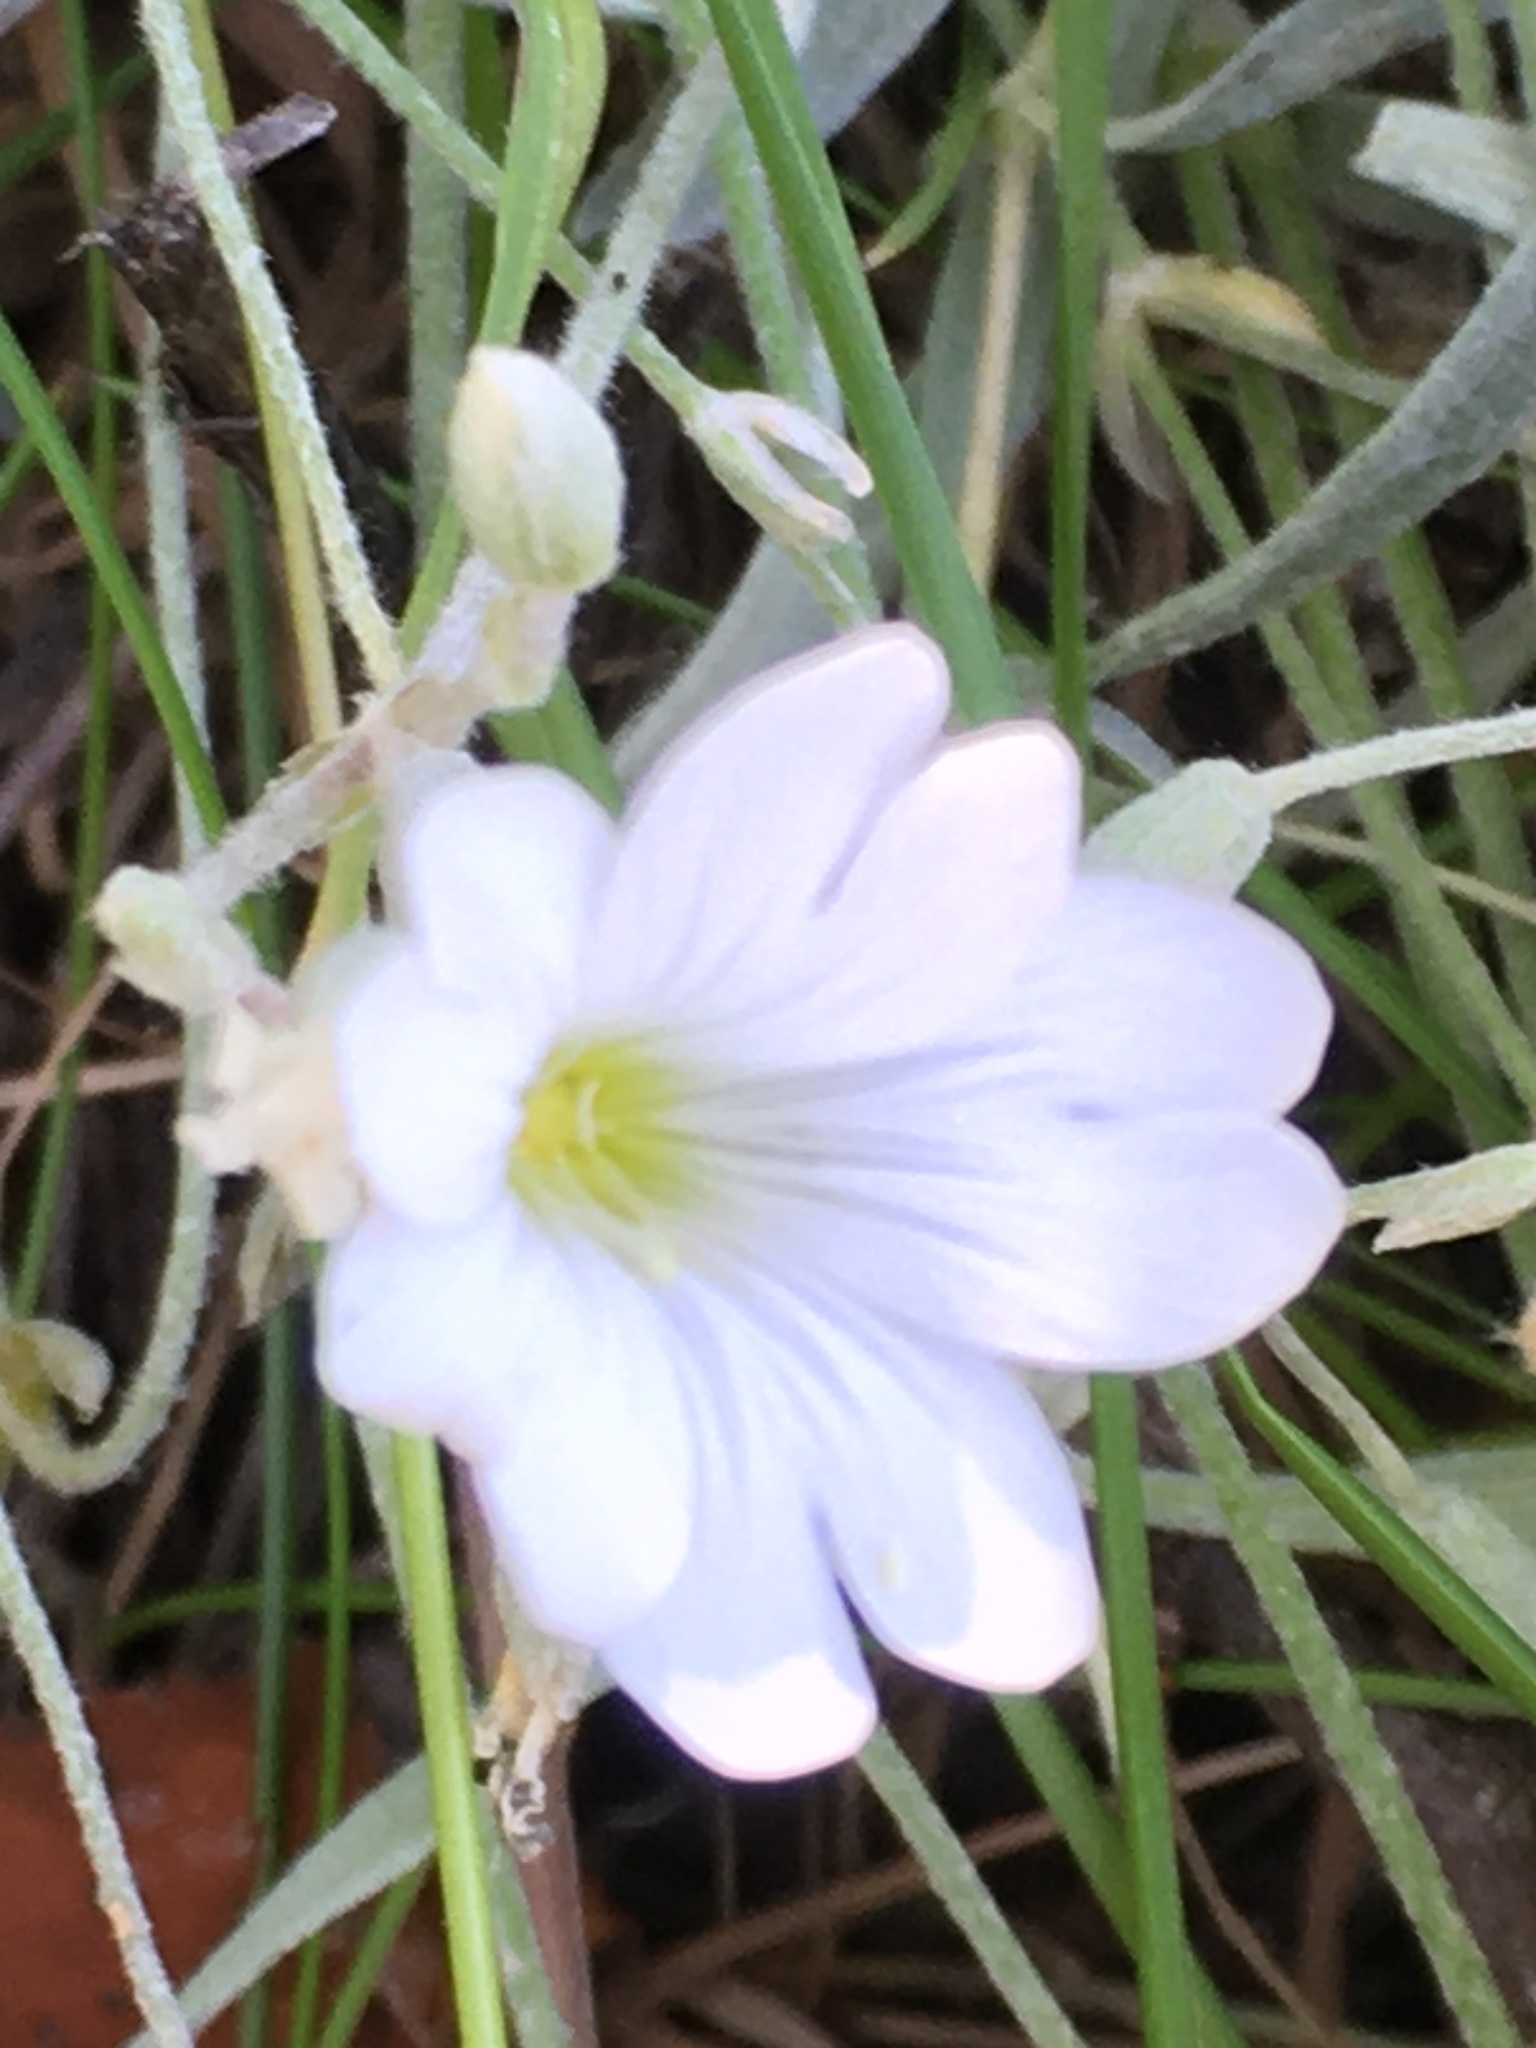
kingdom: Plantae
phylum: Tracheophyta
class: Magnoliopsida
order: Caryophyllales
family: Caryophyllaceae
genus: Cerastium
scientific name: Cerastium tomentosum
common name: Snow-in-summer
